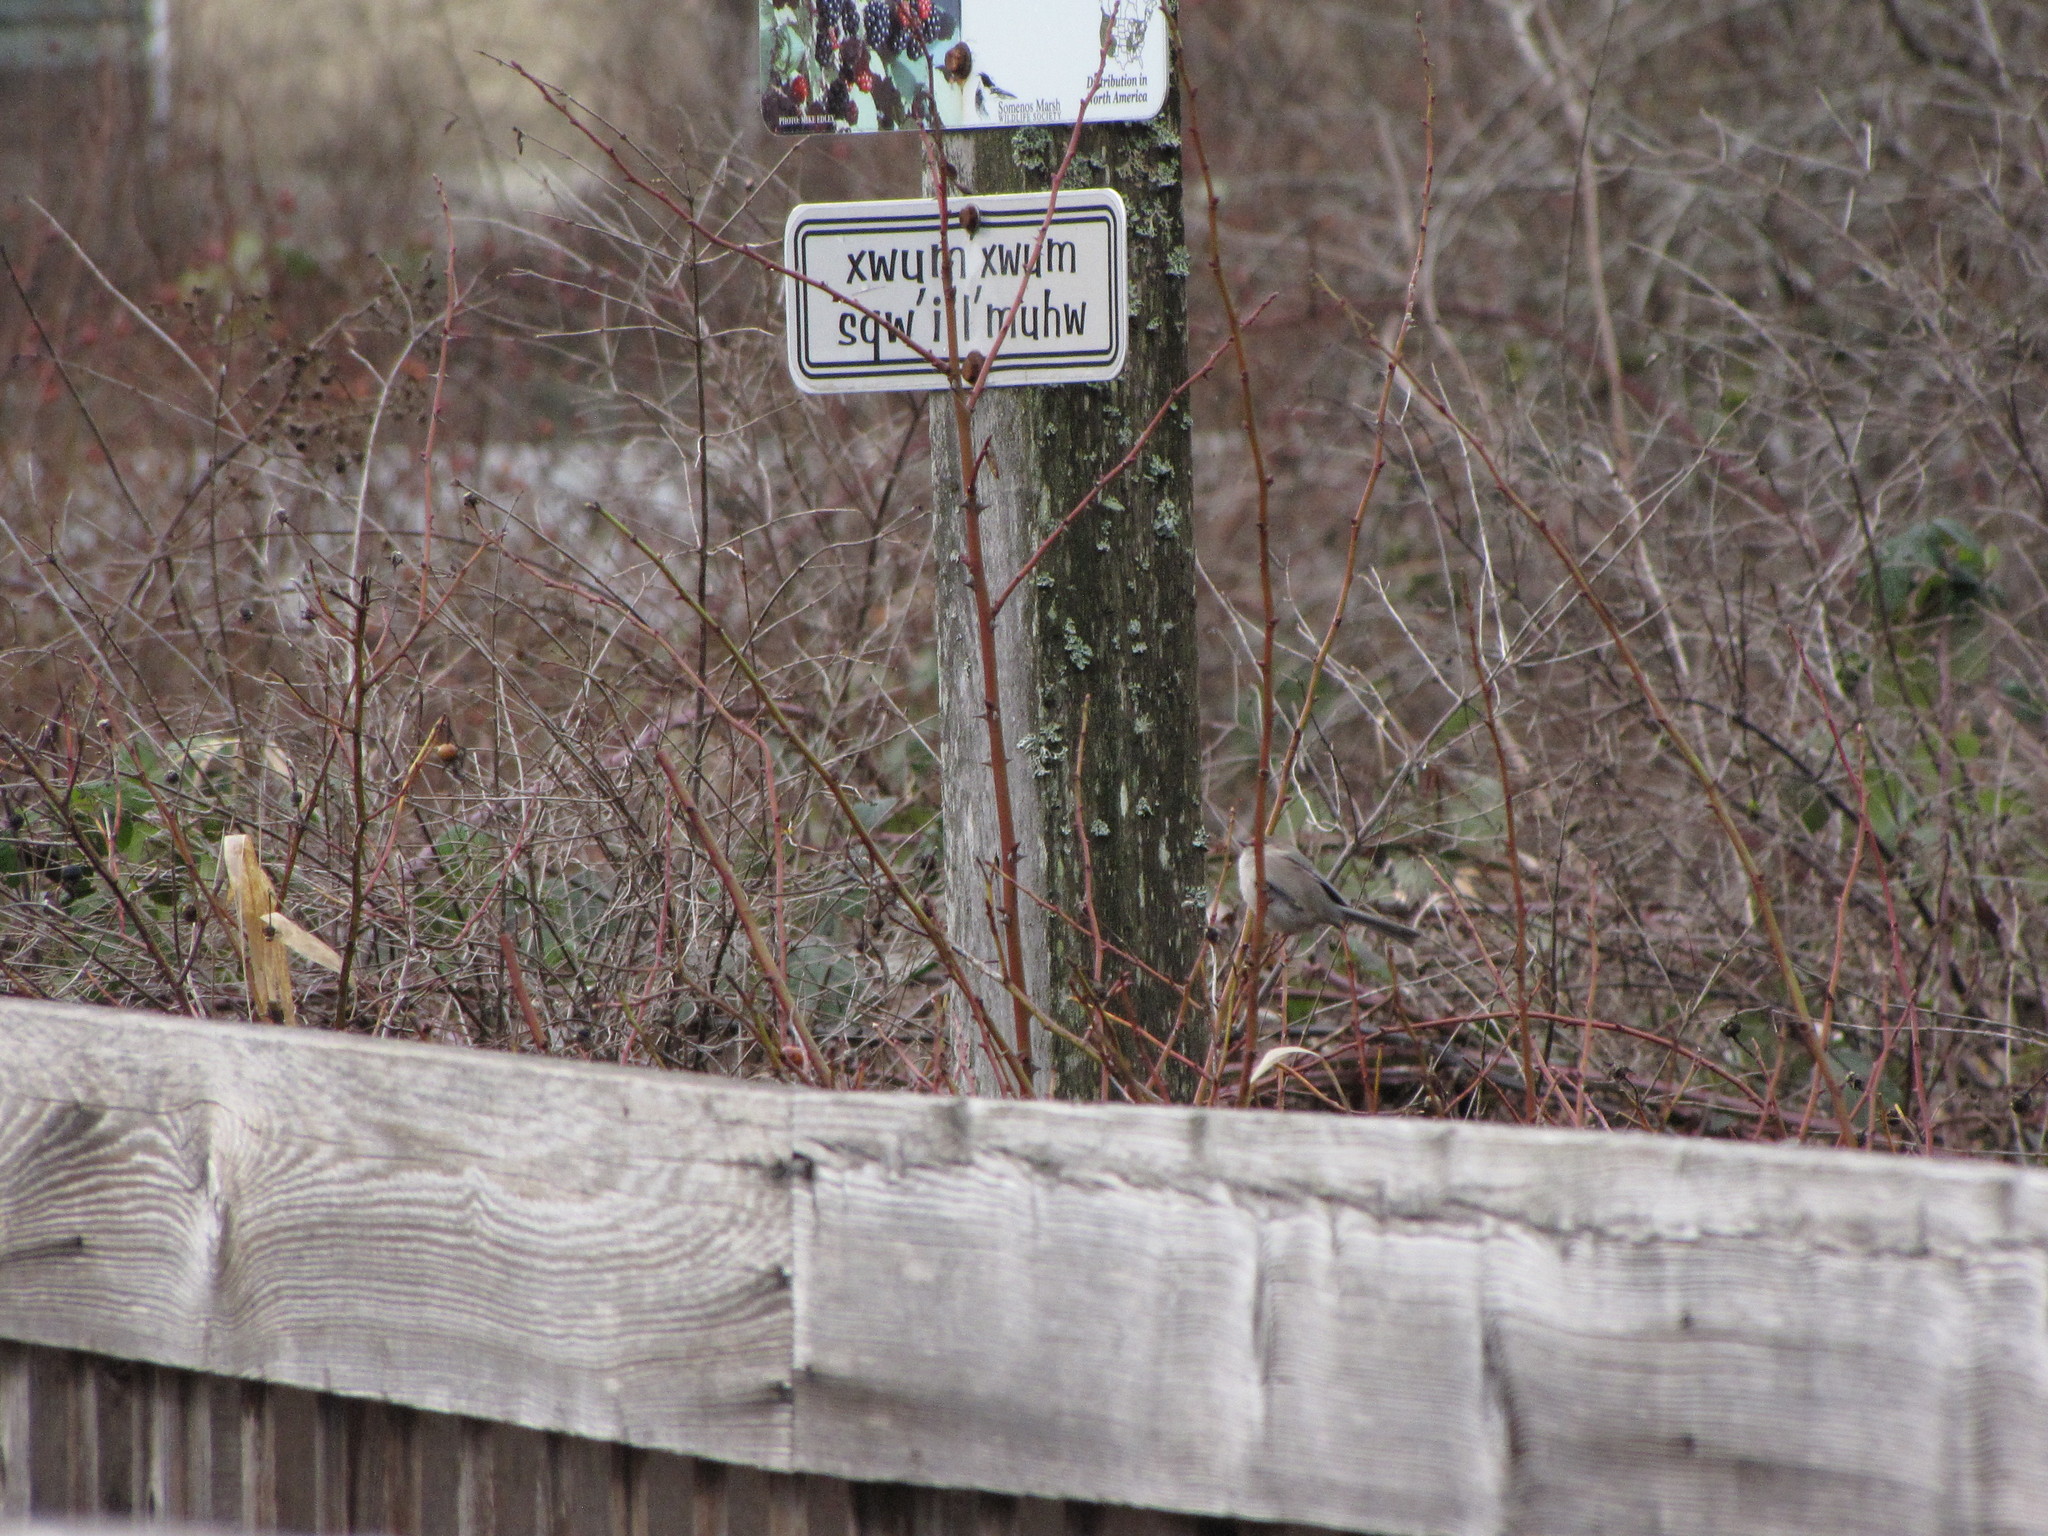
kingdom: Animalia
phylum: Chordata
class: Aves
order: Passeriformes
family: Aegithalidae
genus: Psaltriparus
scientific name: Psaltriparus minimus
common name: American bushtit
